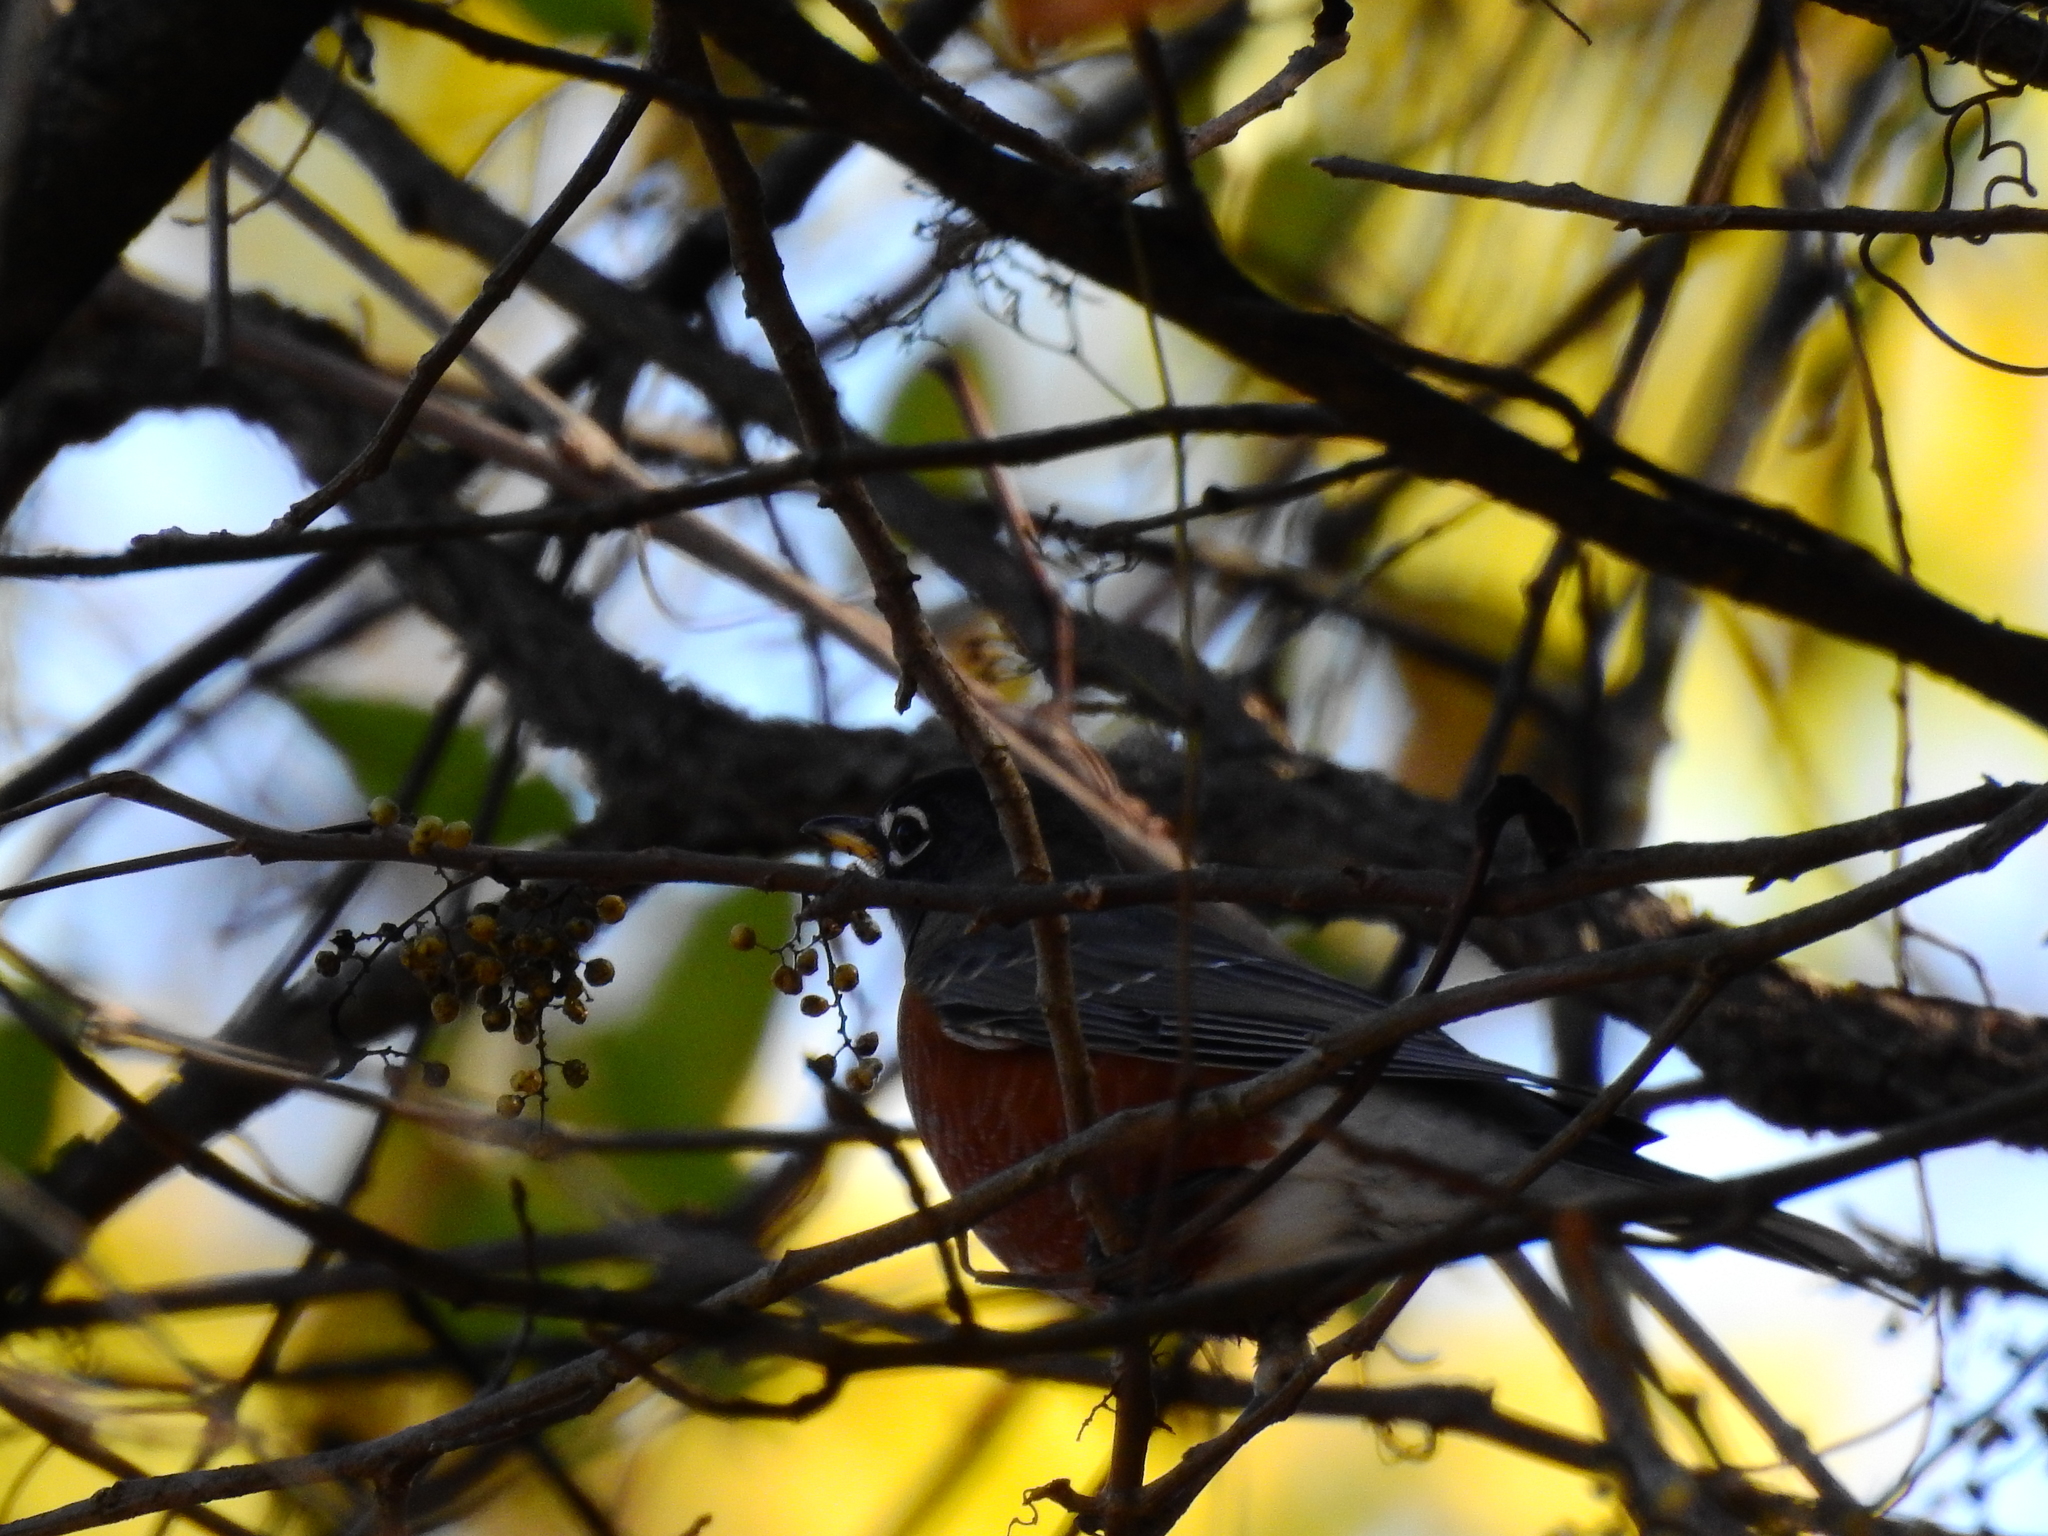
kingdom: Animalia
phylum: Chordata
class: Aves
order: Passeriformes
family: Turdidae
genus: Turdus
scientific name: Turdus migratorius
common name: American robin
